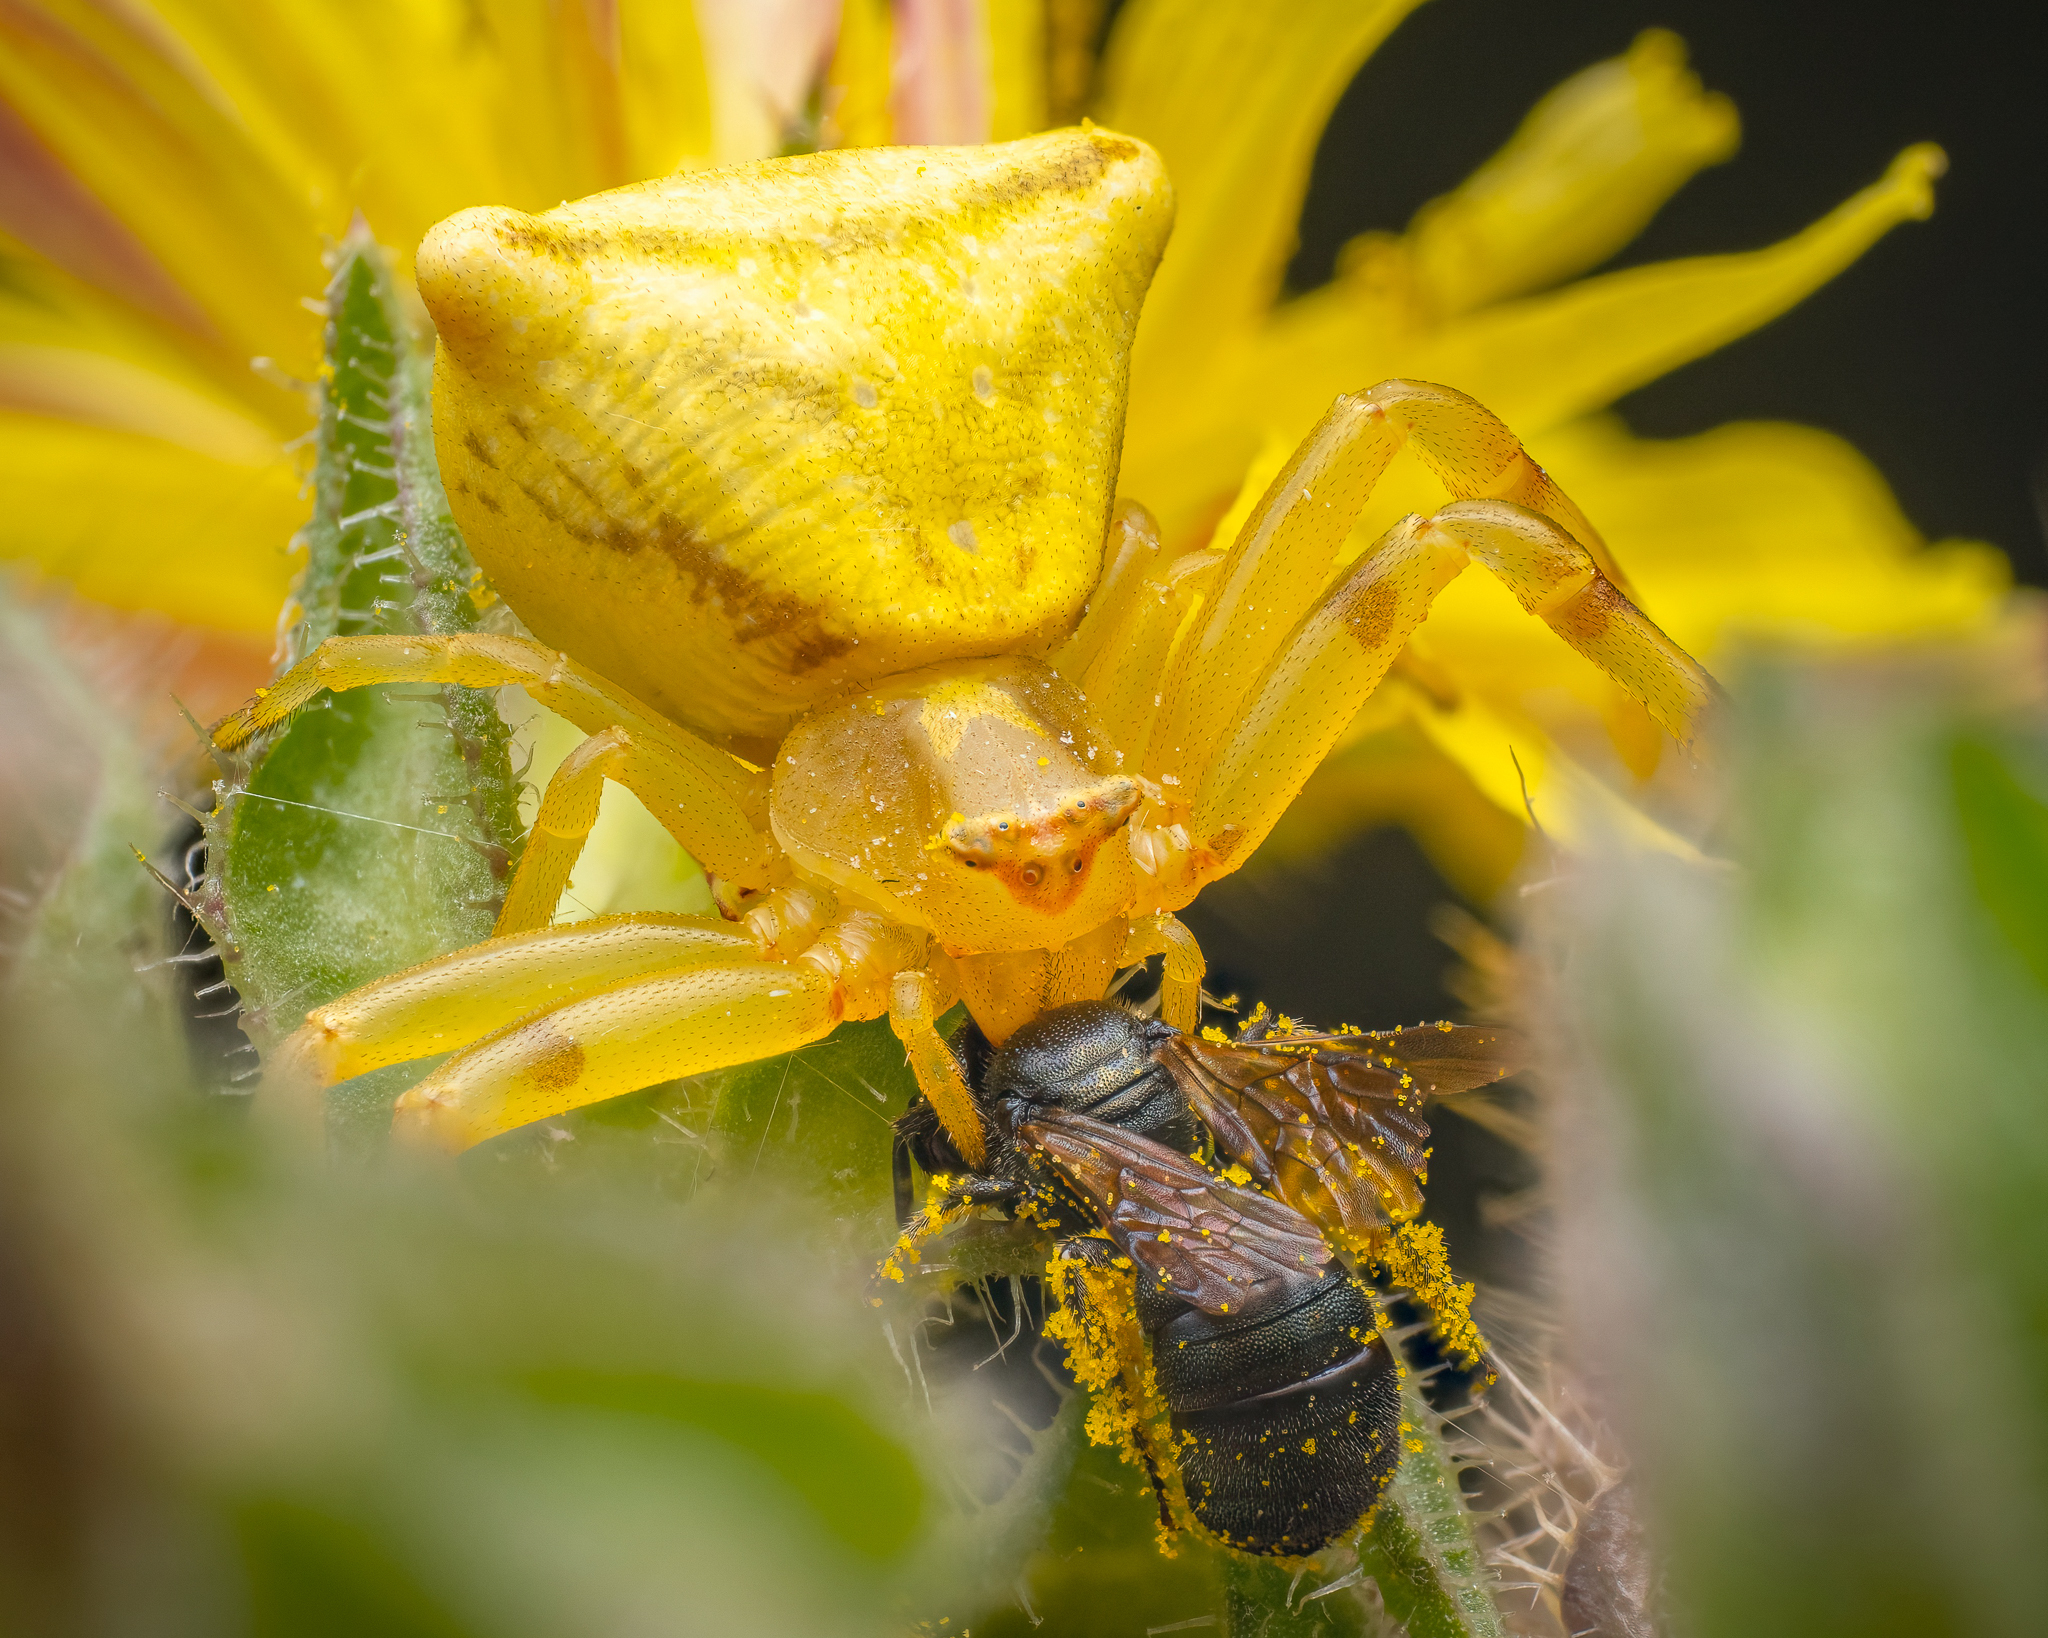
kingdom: Animalia
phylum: Arthropoda
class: Arachnida
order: Araneae
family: Thomisidae
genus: Thomisus
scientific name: Thomisus onustus
